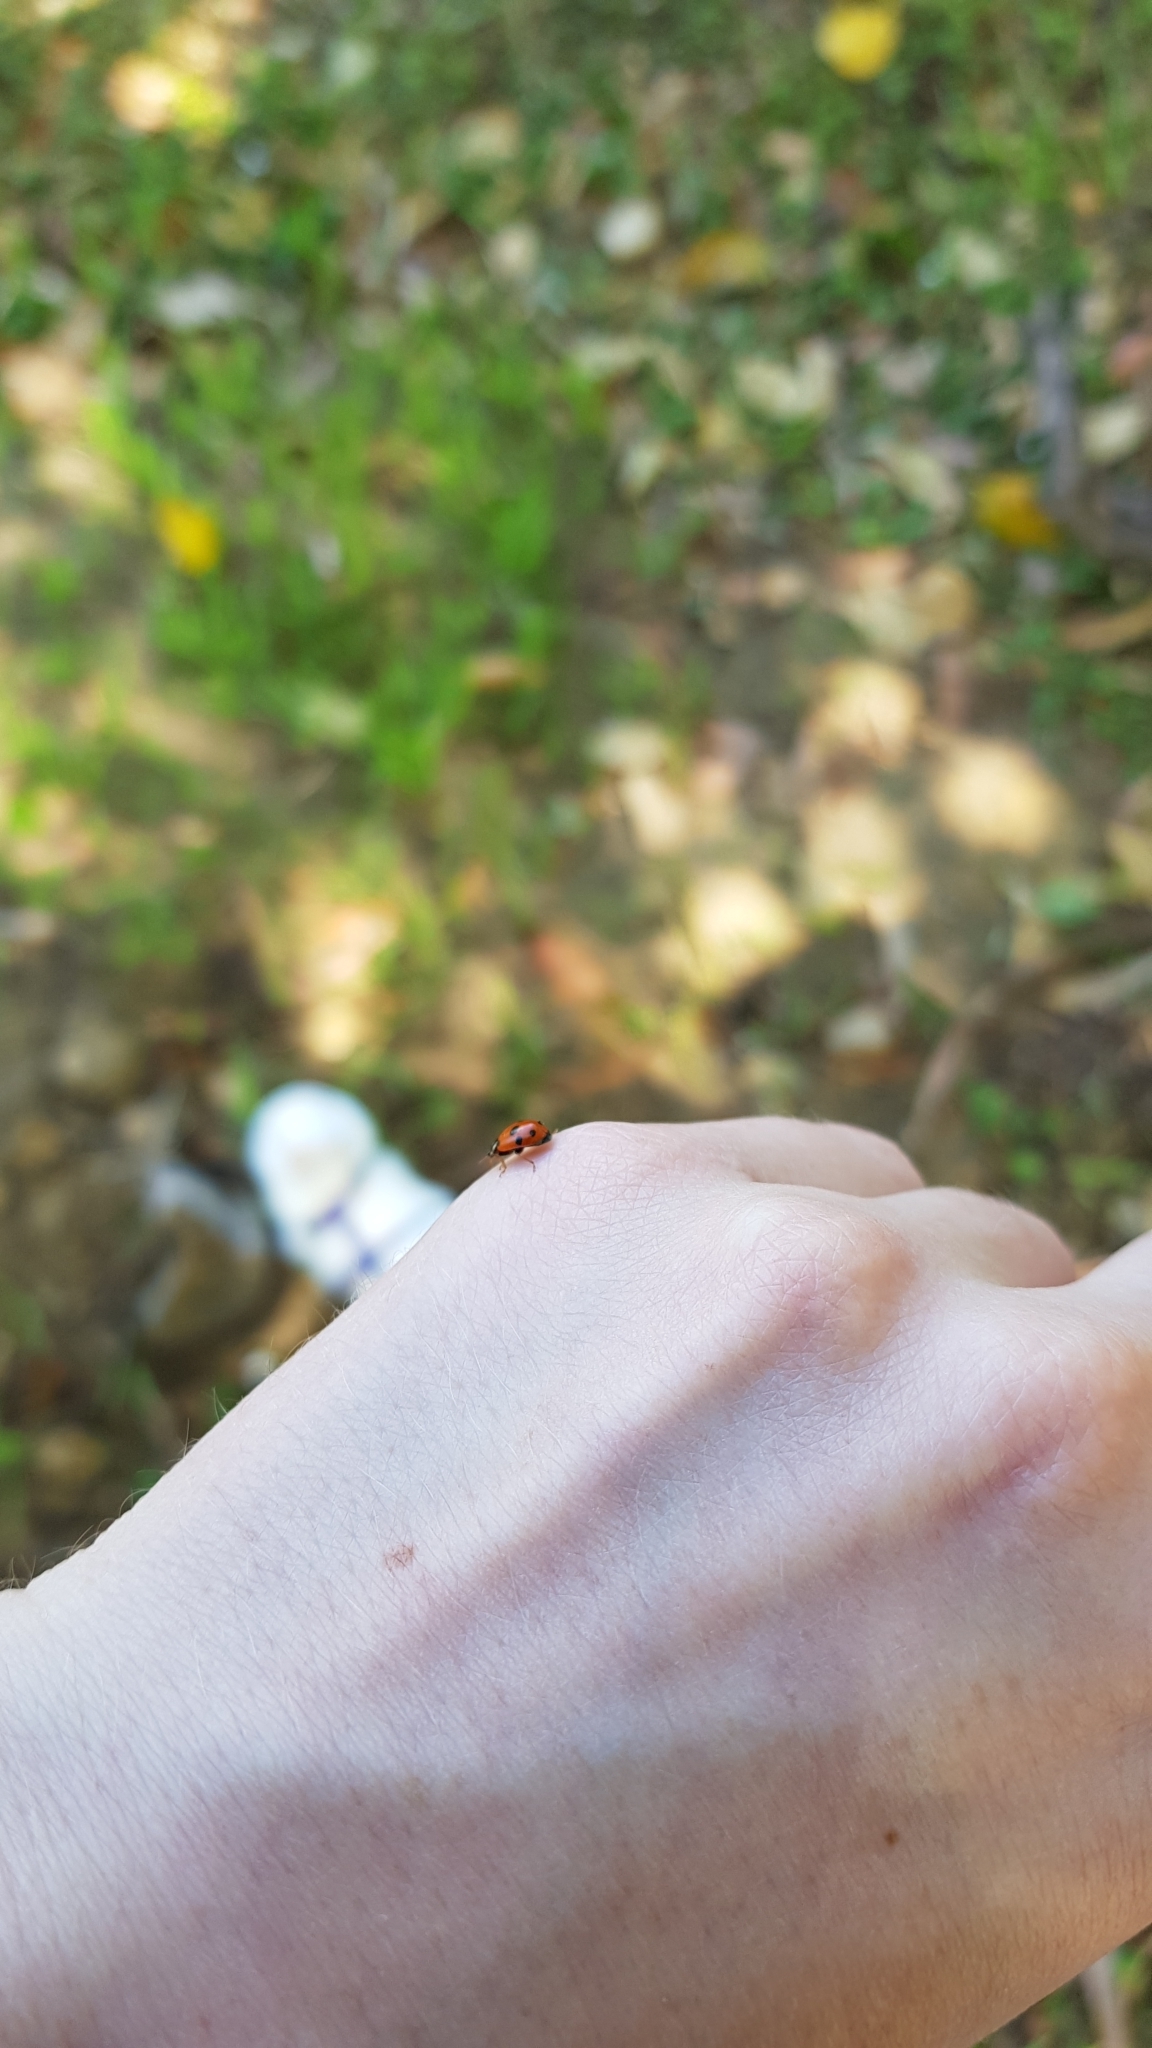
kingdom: Animalia
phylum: Arthropoda
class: Insecta
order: Coleoptera
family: Coccinellidae
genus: Hippodamia
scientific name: Hippodamia variegata
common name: Ladybird beetle
